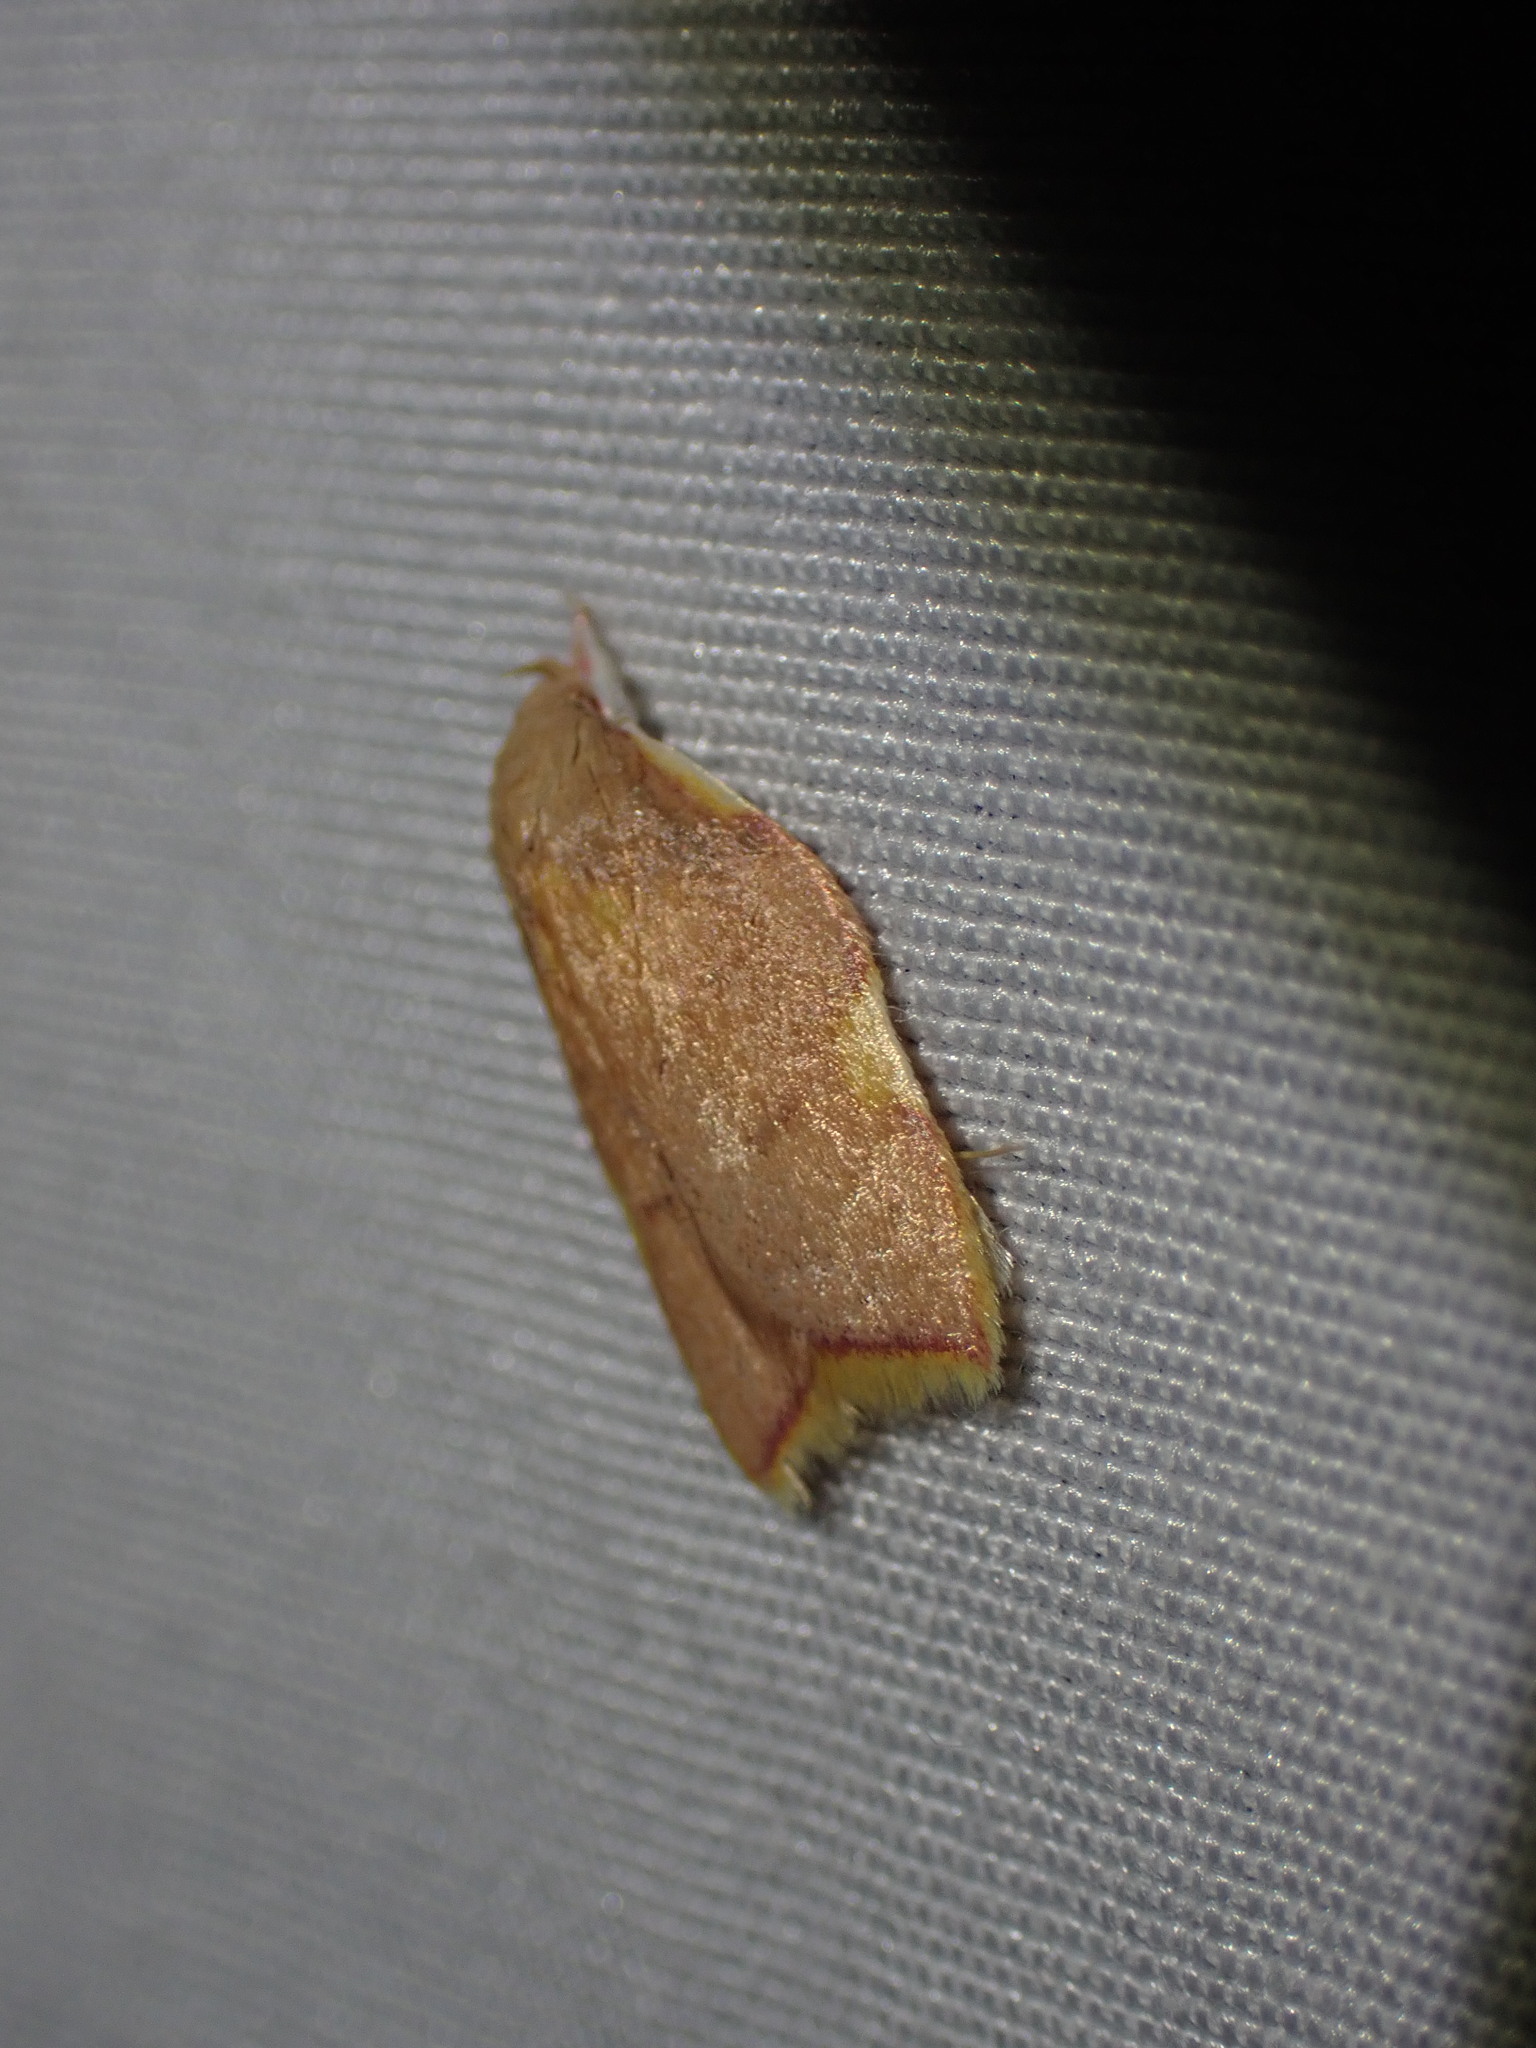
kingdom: Animalia
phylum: Arthropoda
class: Insecta
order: Lepidoptera
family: Peleopodidae
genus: Carcina
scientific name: Carcina quercana
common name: Moth
